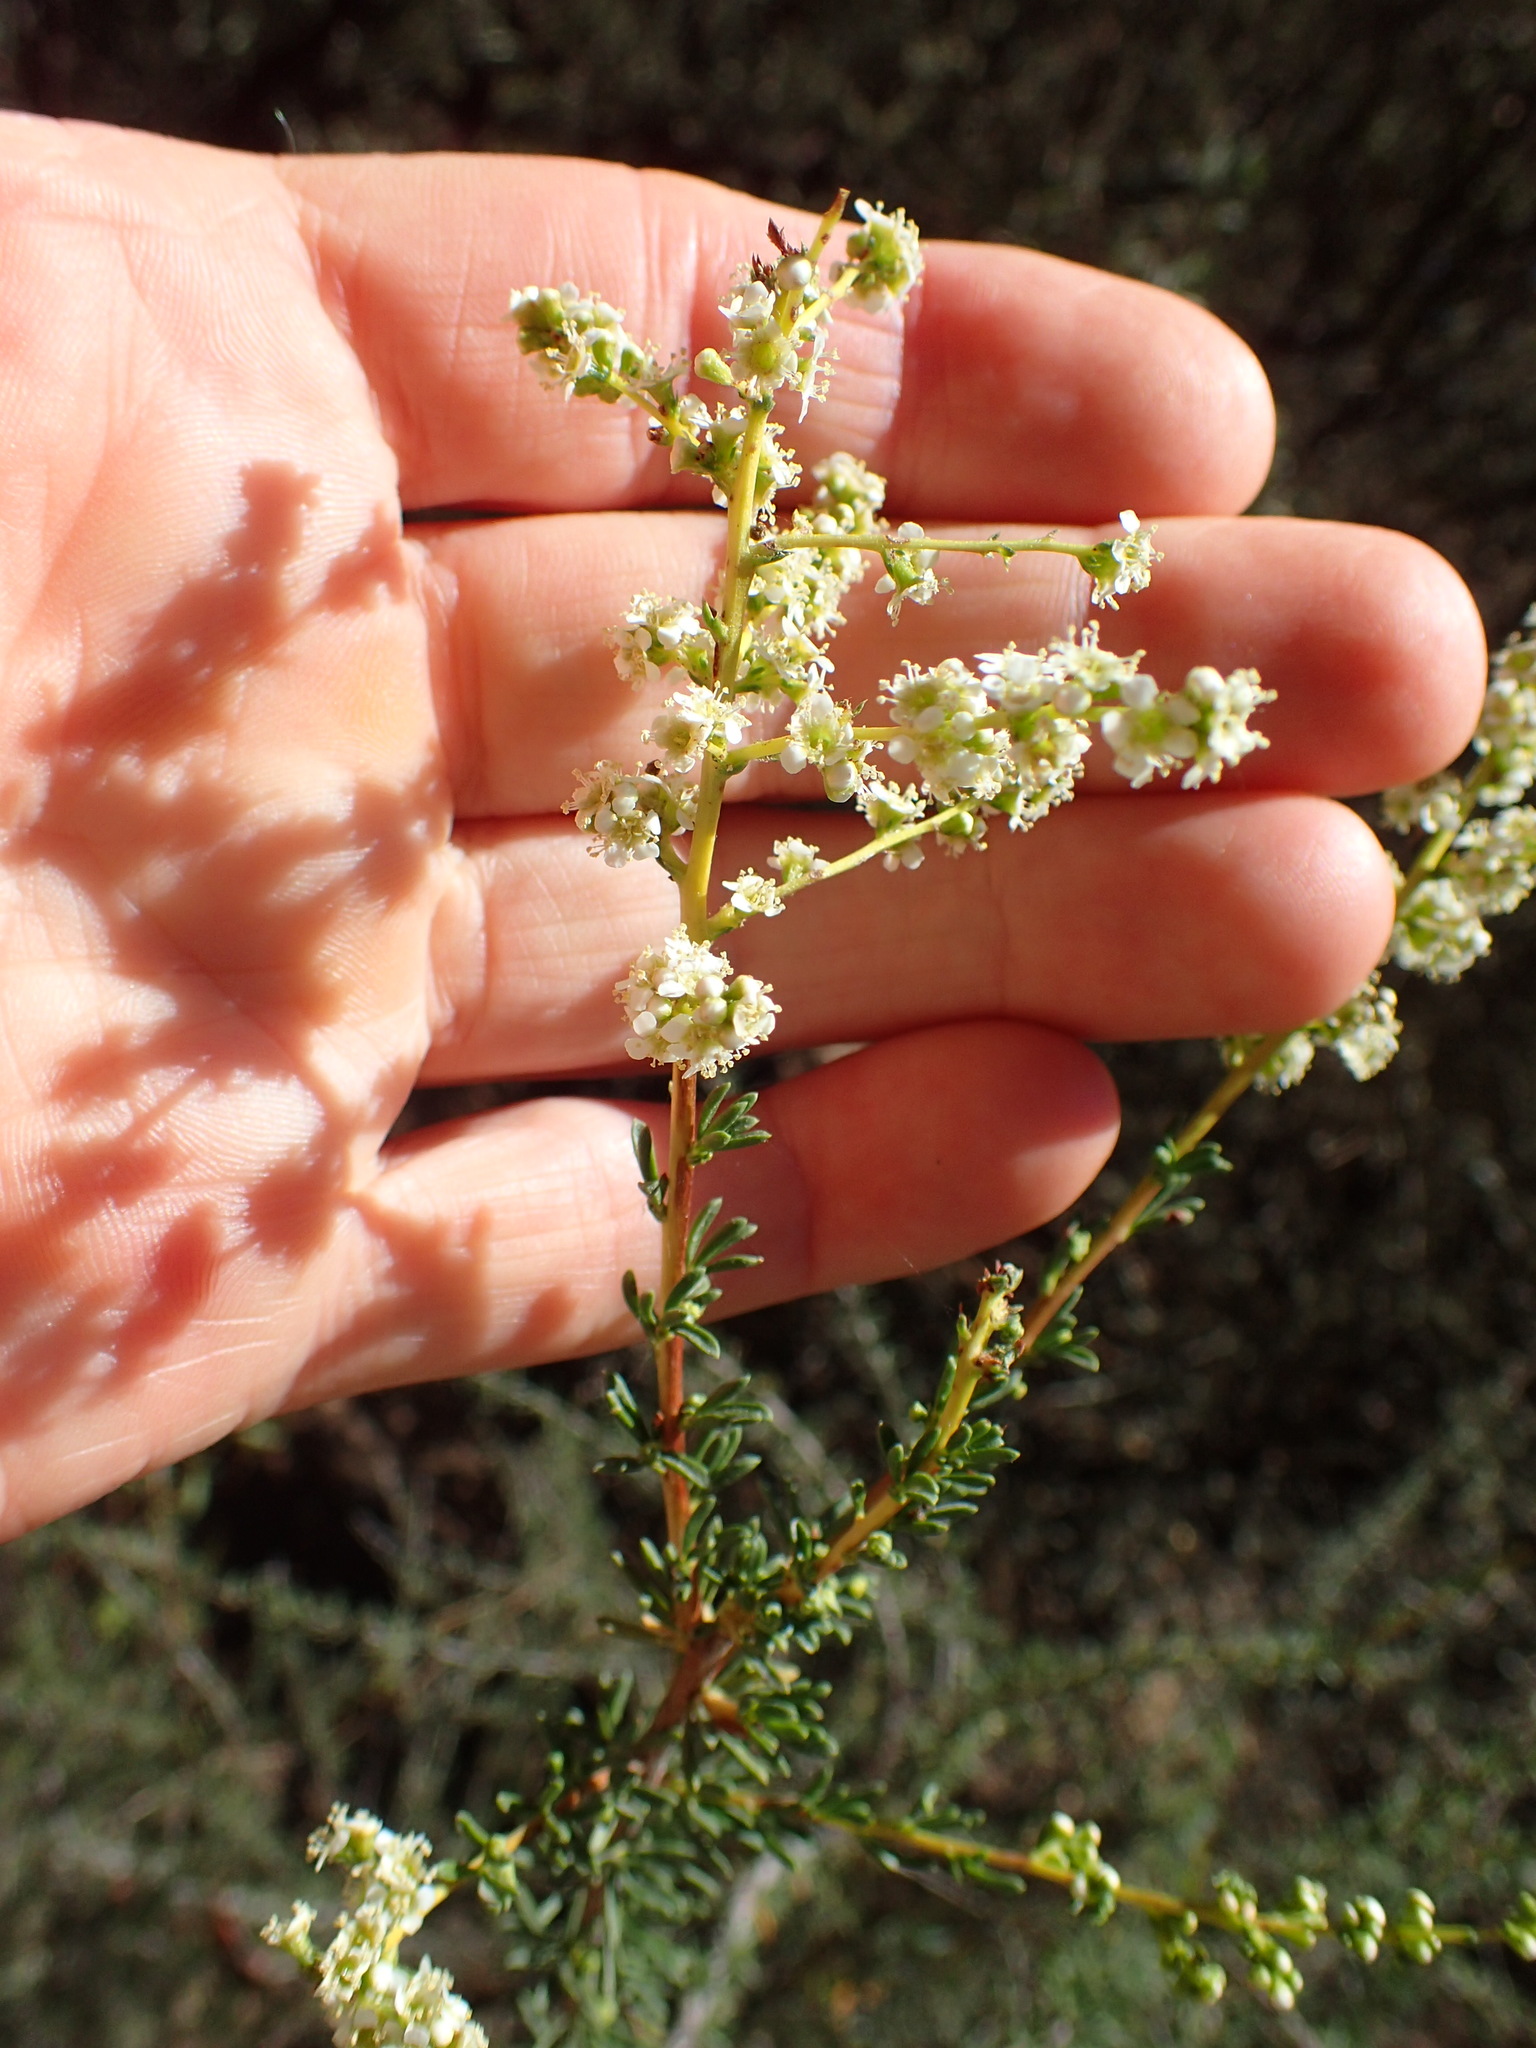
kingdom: Plantae
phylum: Tracheophyta
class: Magnoliopsida
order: Rosales
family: Rosaceae
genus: Adenostoma
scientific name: Adenostoma fasciculatum
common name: Chamise
